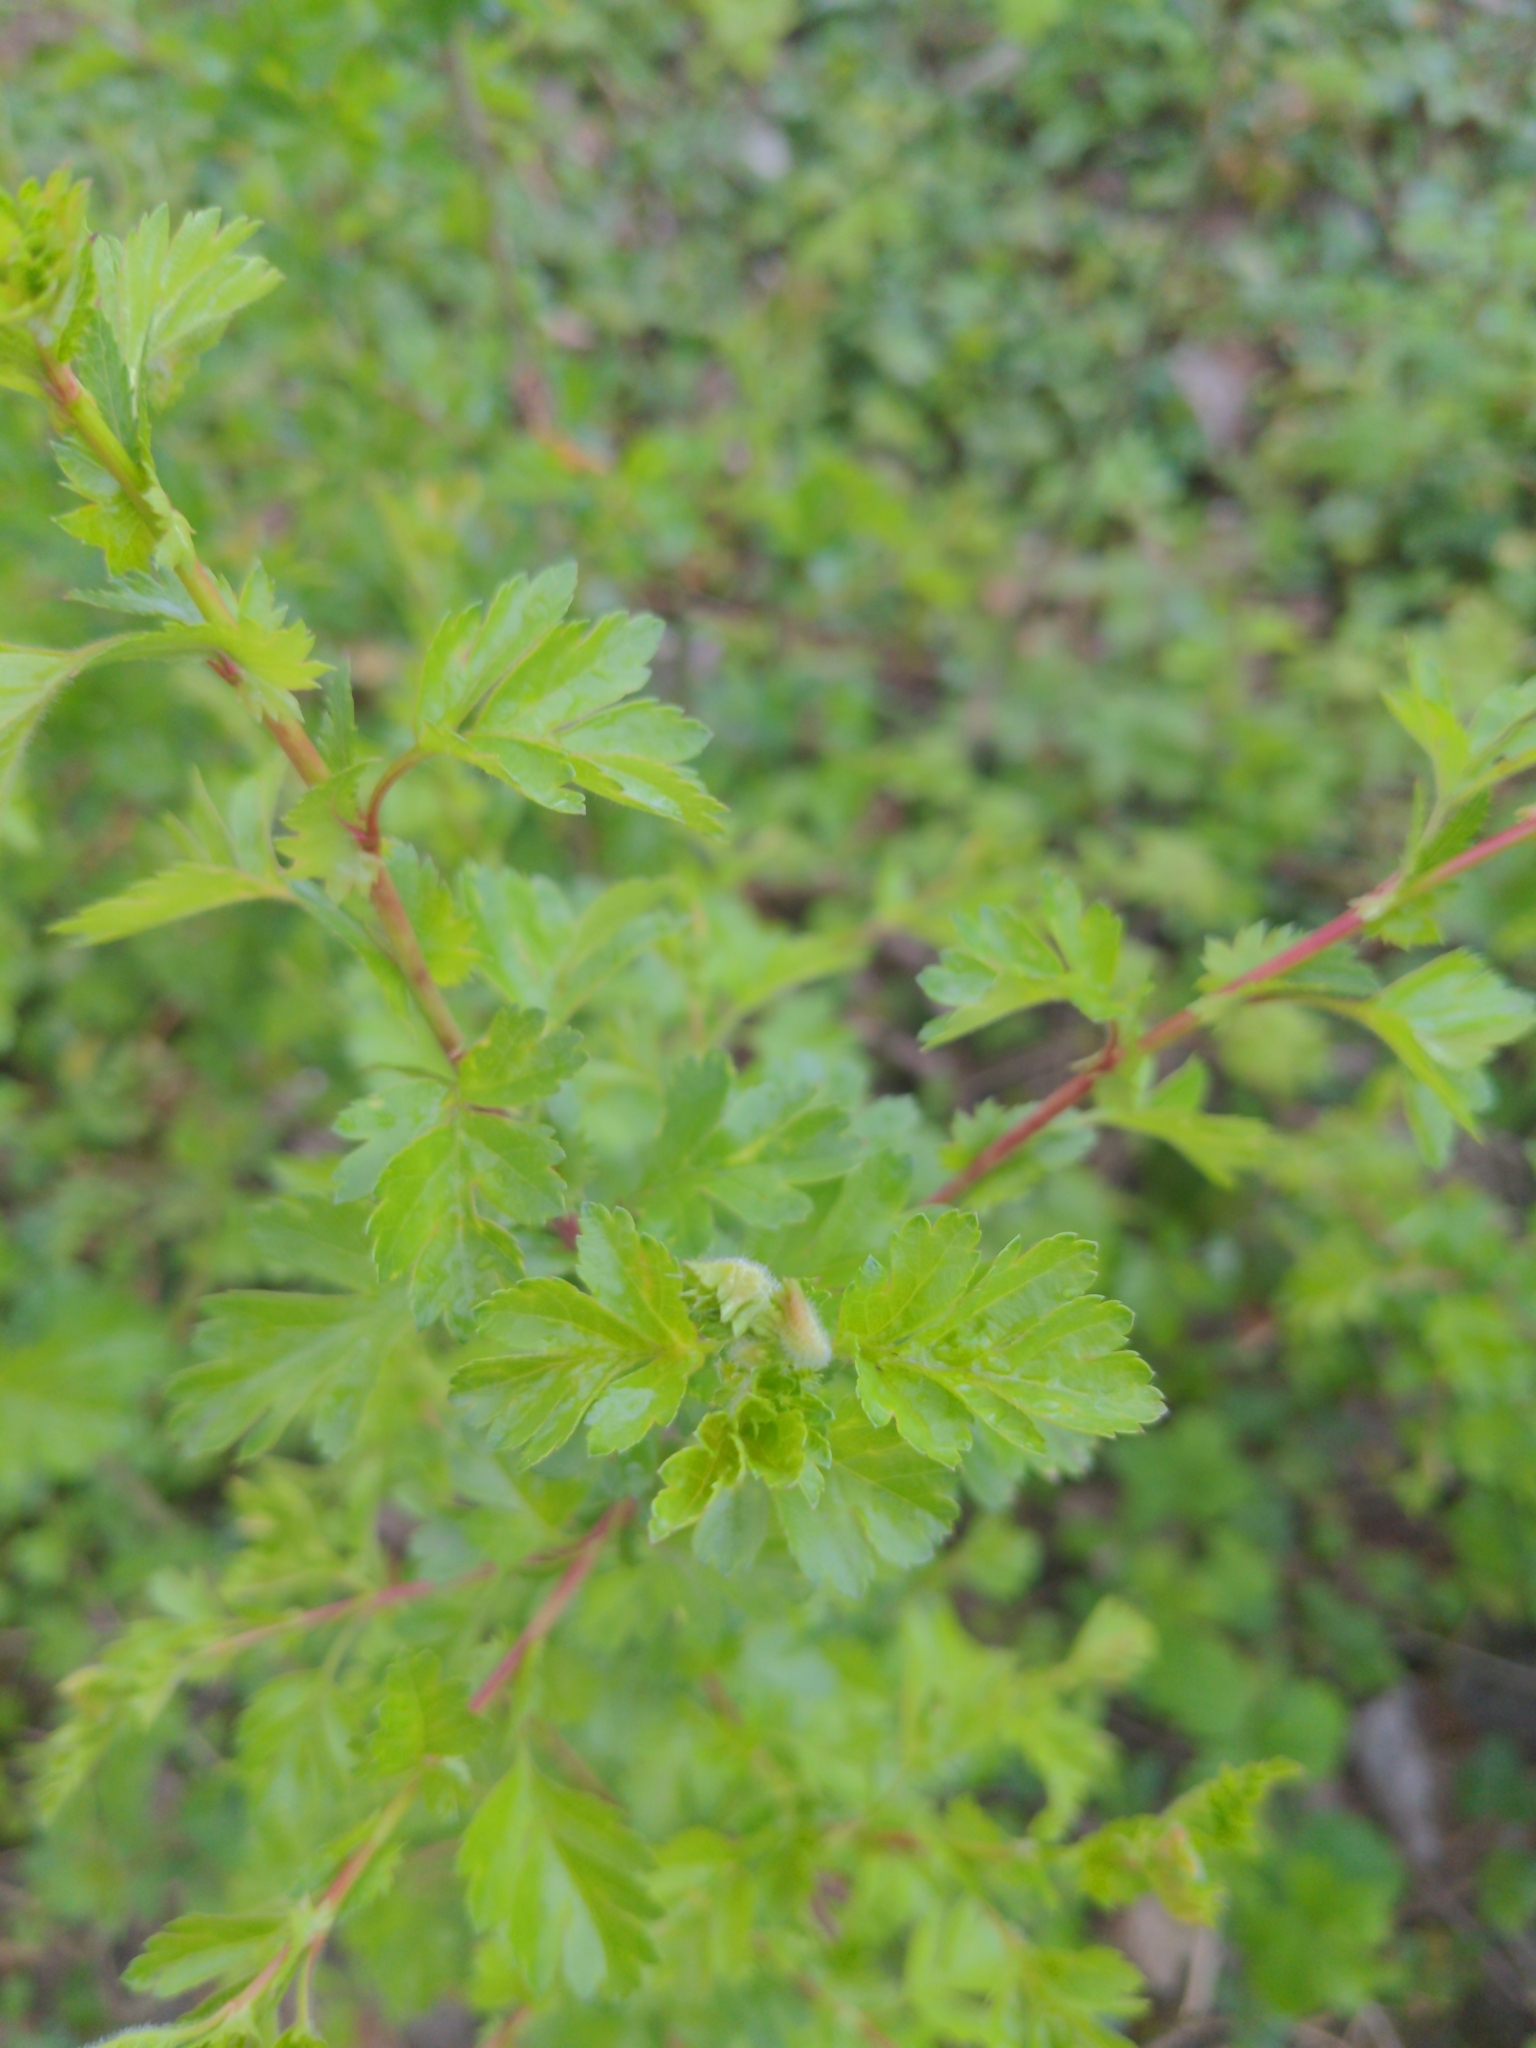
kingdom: Plantae
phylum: Tracheophyta
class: Magnoliopsida
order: Rosales
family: Rosaceae
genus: Crataegus
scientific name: Crataegus monogyna
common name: Hawthorn
